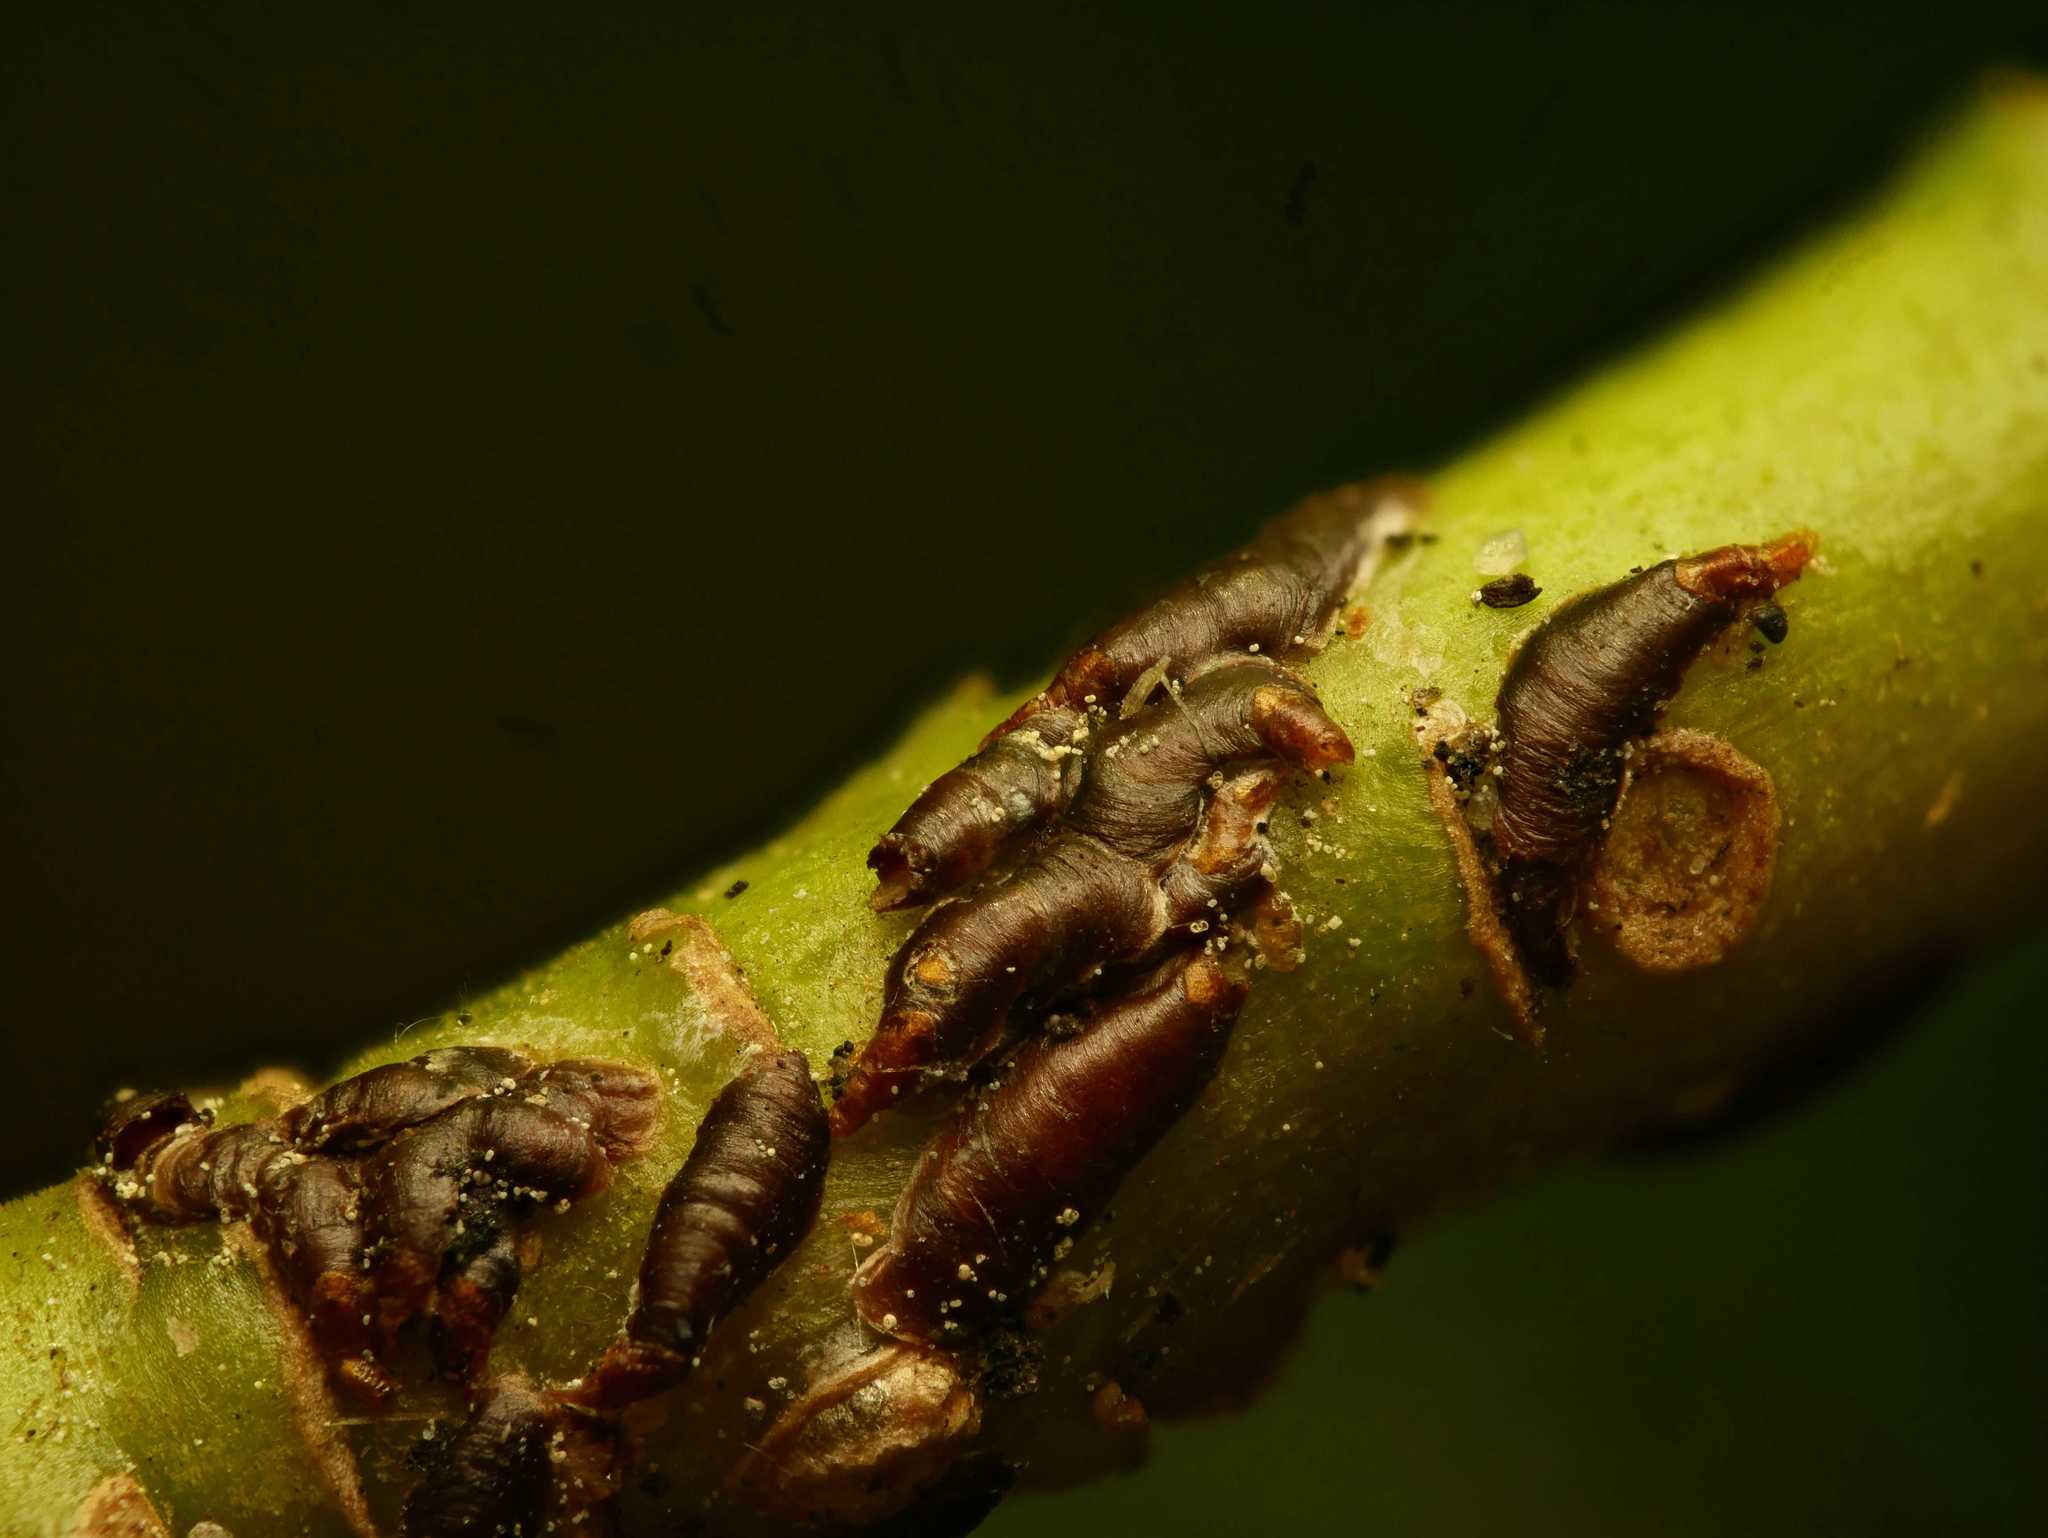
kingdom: Animalia
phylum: Arthropoda
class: Insecta
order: Hemiptera
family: Diaspididae
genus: Lepidosaphes
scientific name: Lepidosaphes ulmi
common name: Oystershell scale
